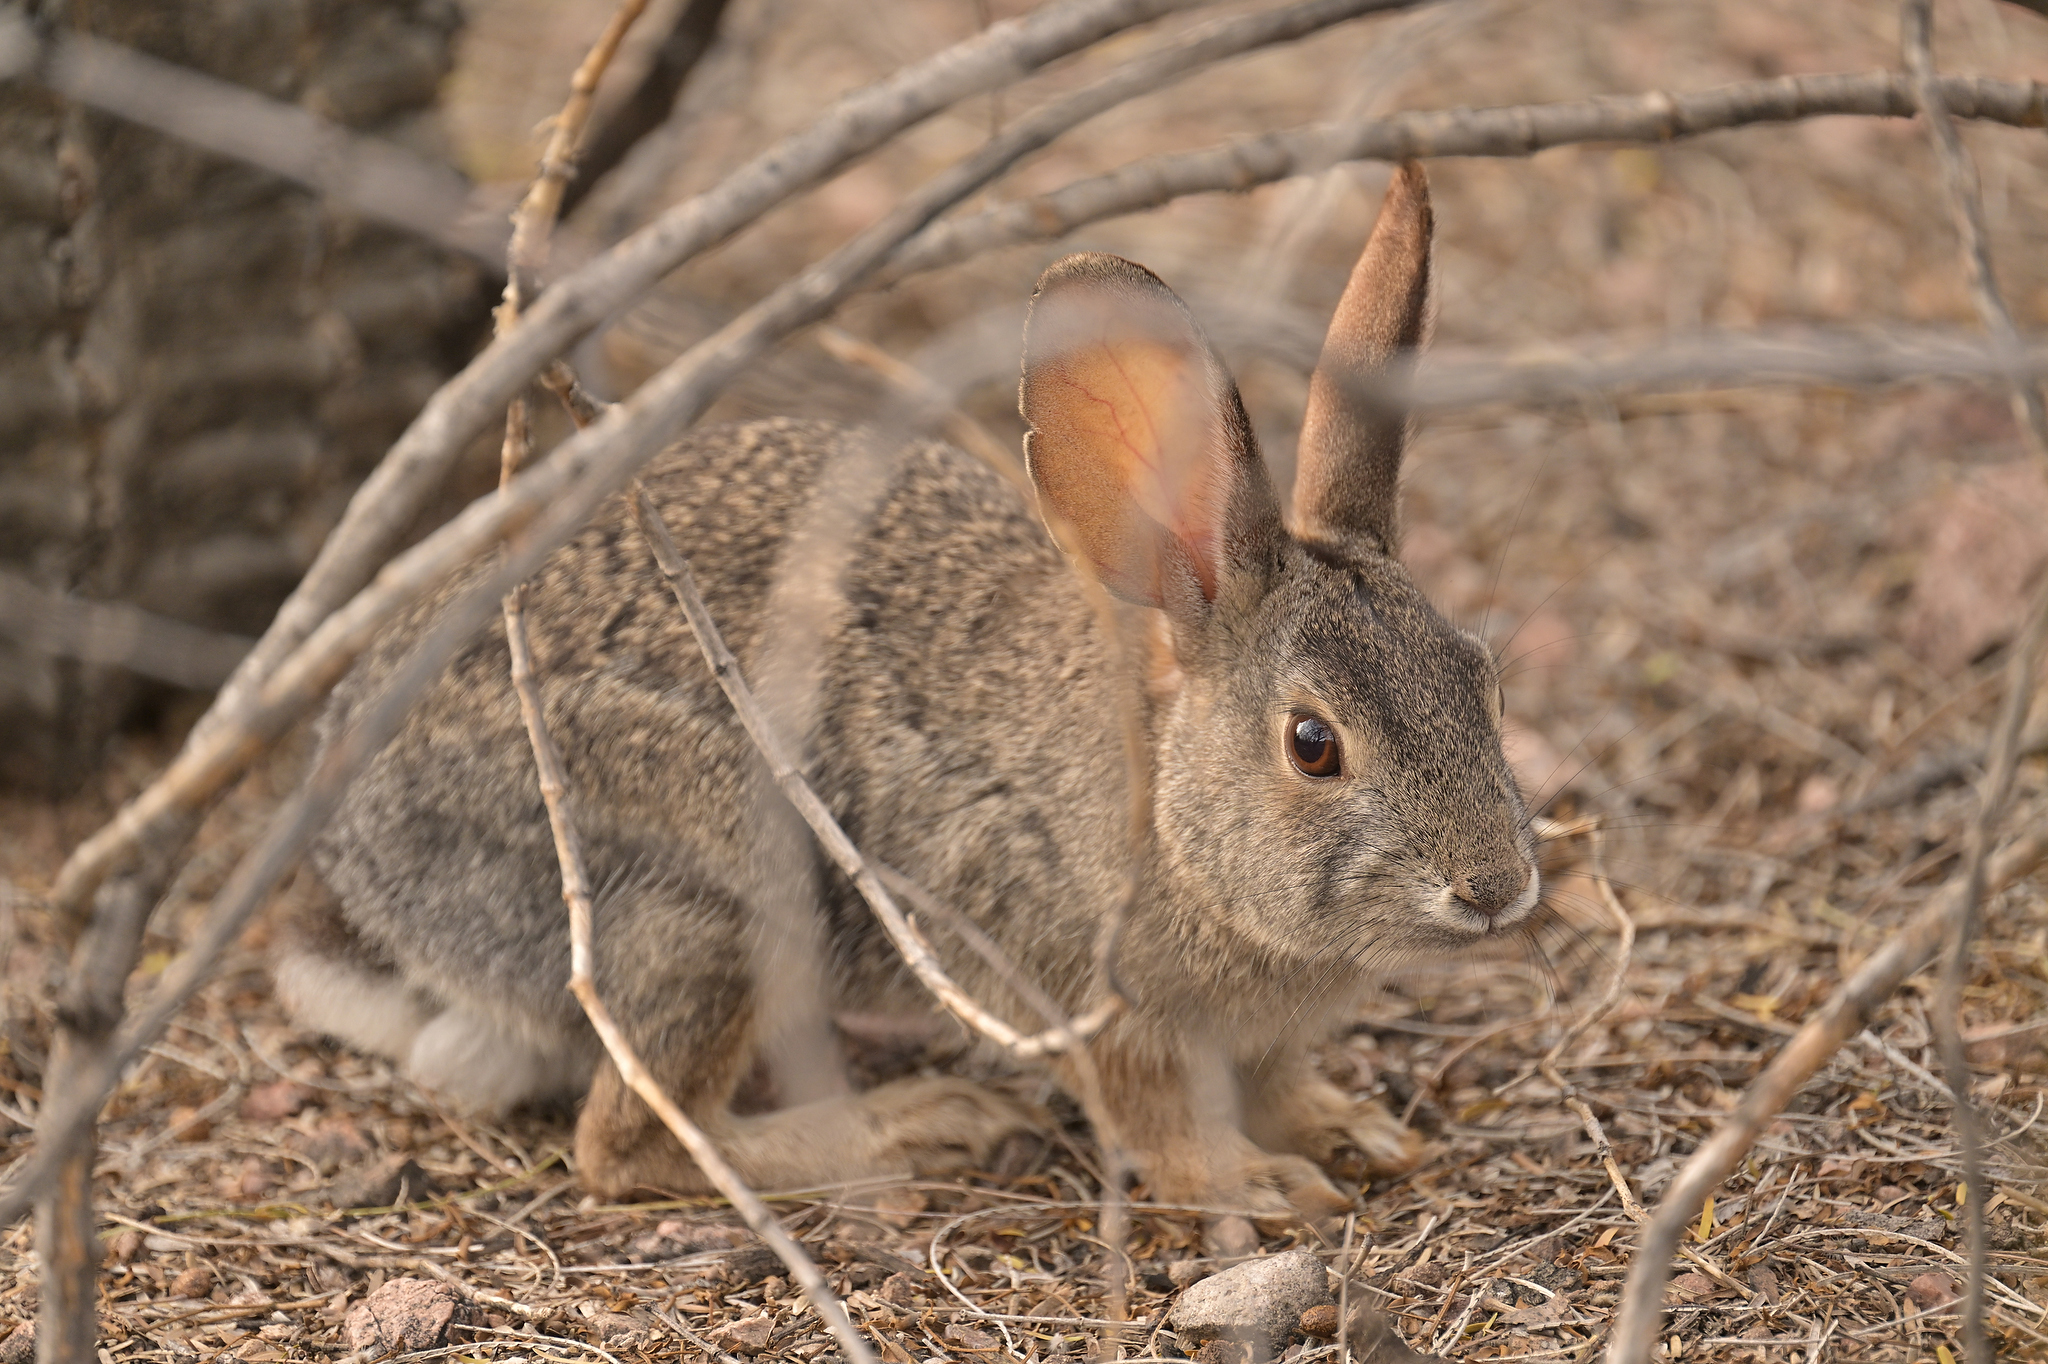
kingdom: Animalia
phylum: Chordata
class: Mammalia
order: Lagomorpha
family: Leporidae
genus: Sylvilagus
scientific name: Sylvilagus audubonii
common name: Desert cottontail
